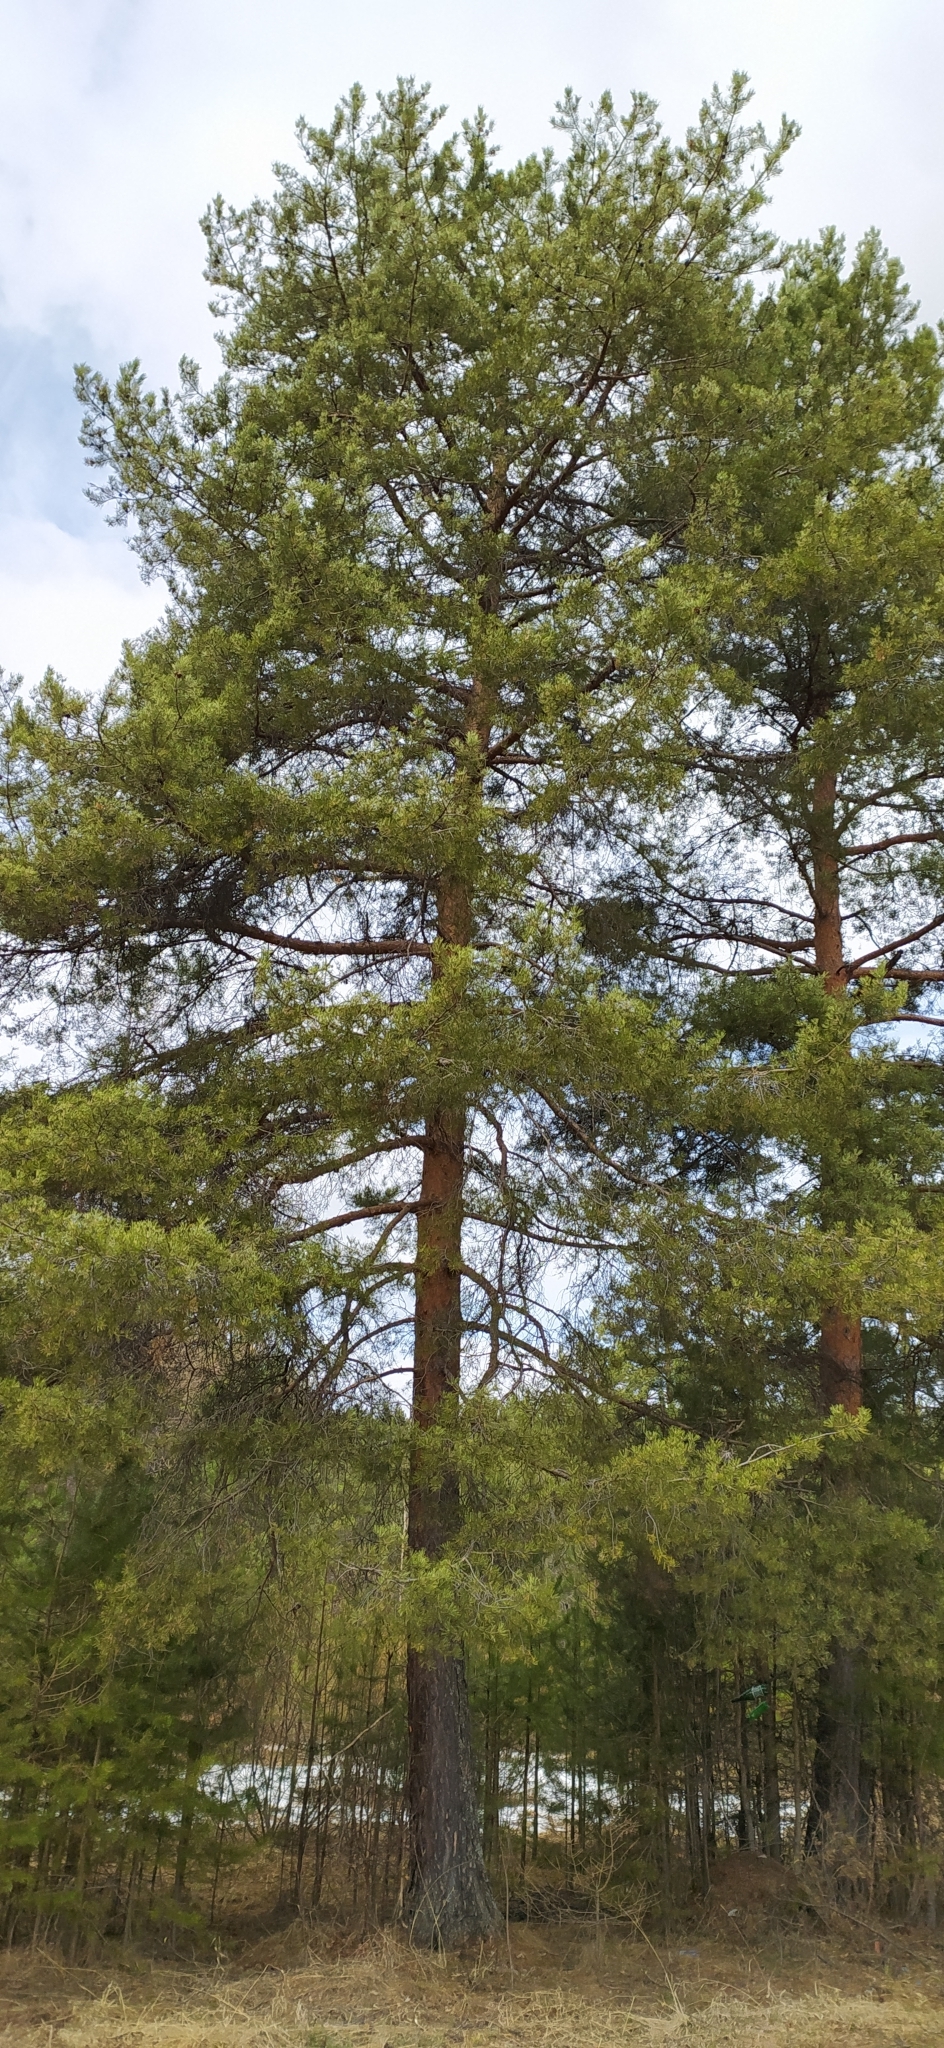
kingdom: Plantae
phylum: Tracheophyta
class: Pinopsida
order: Pinales
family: Pinaceae
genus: Pinus
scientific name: Pinus sylvestris
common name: Scots pine
